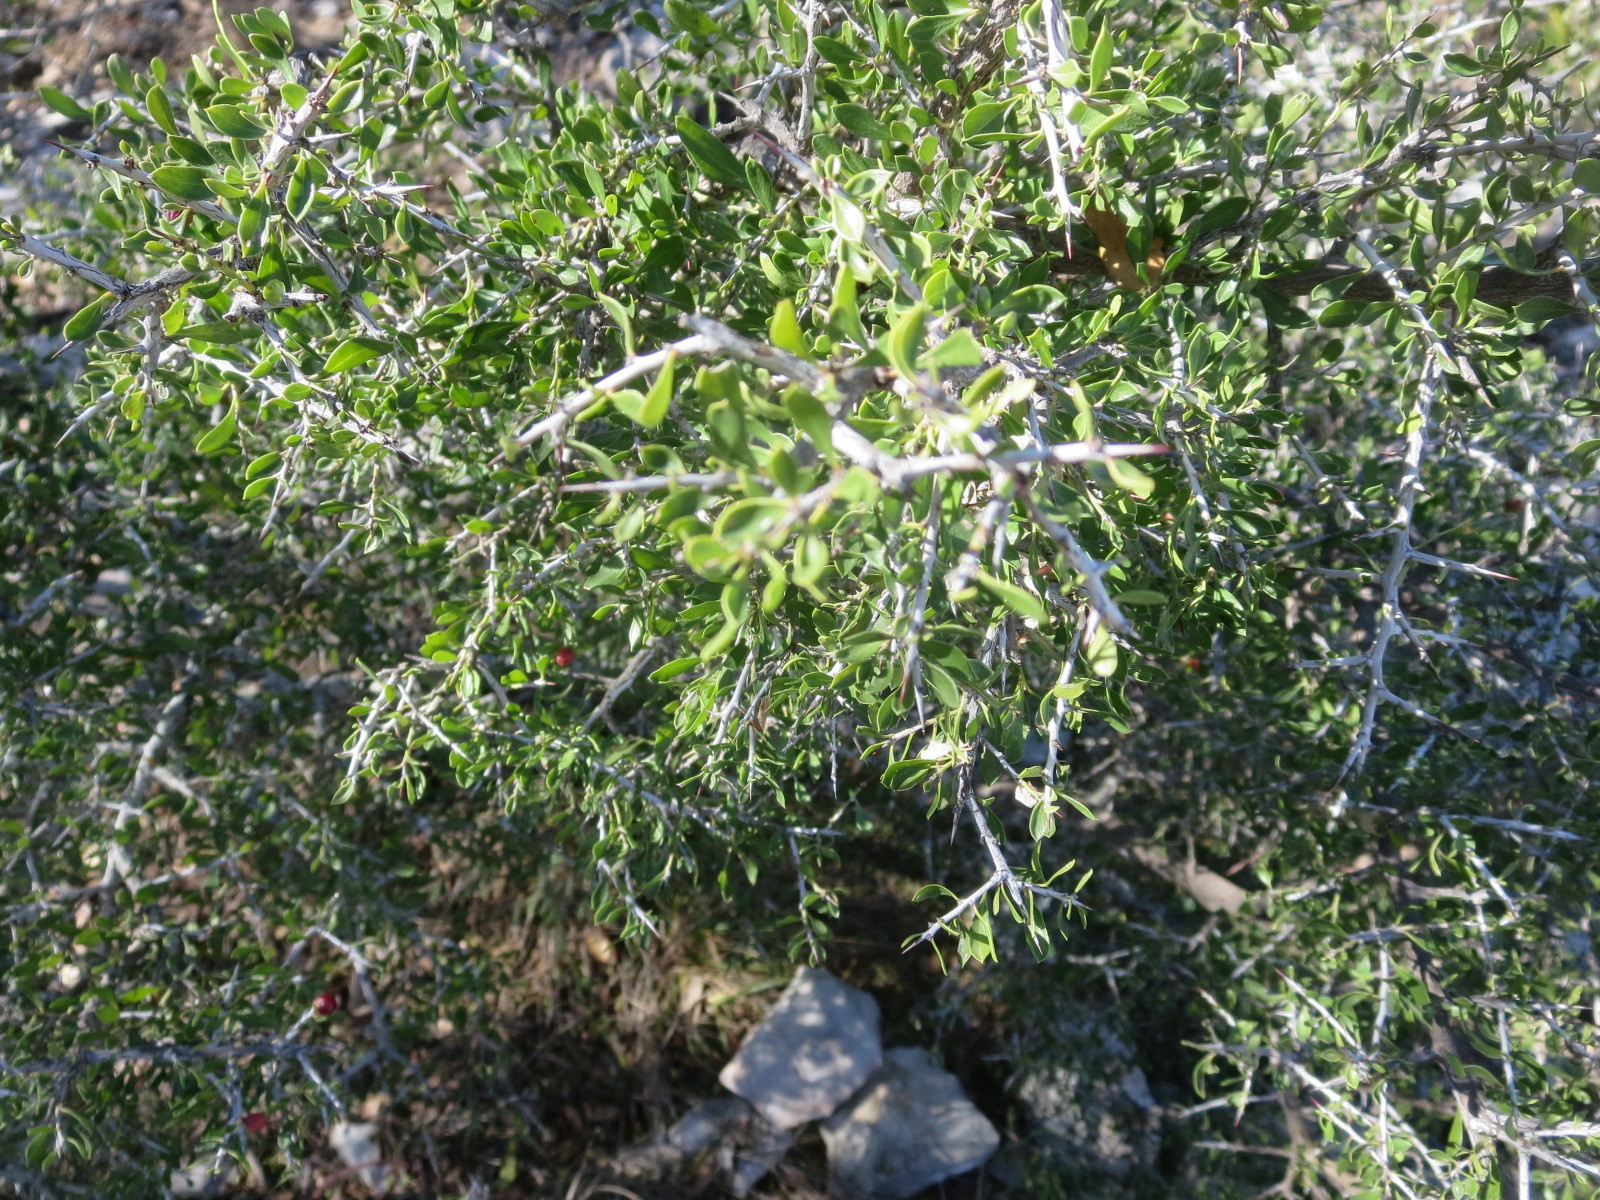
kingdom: Plantae
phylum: Tracheophyta
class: Magnoliopsida
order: Rosales
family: Rhamnaceae
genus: Condalia
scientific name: Condalia viridis
